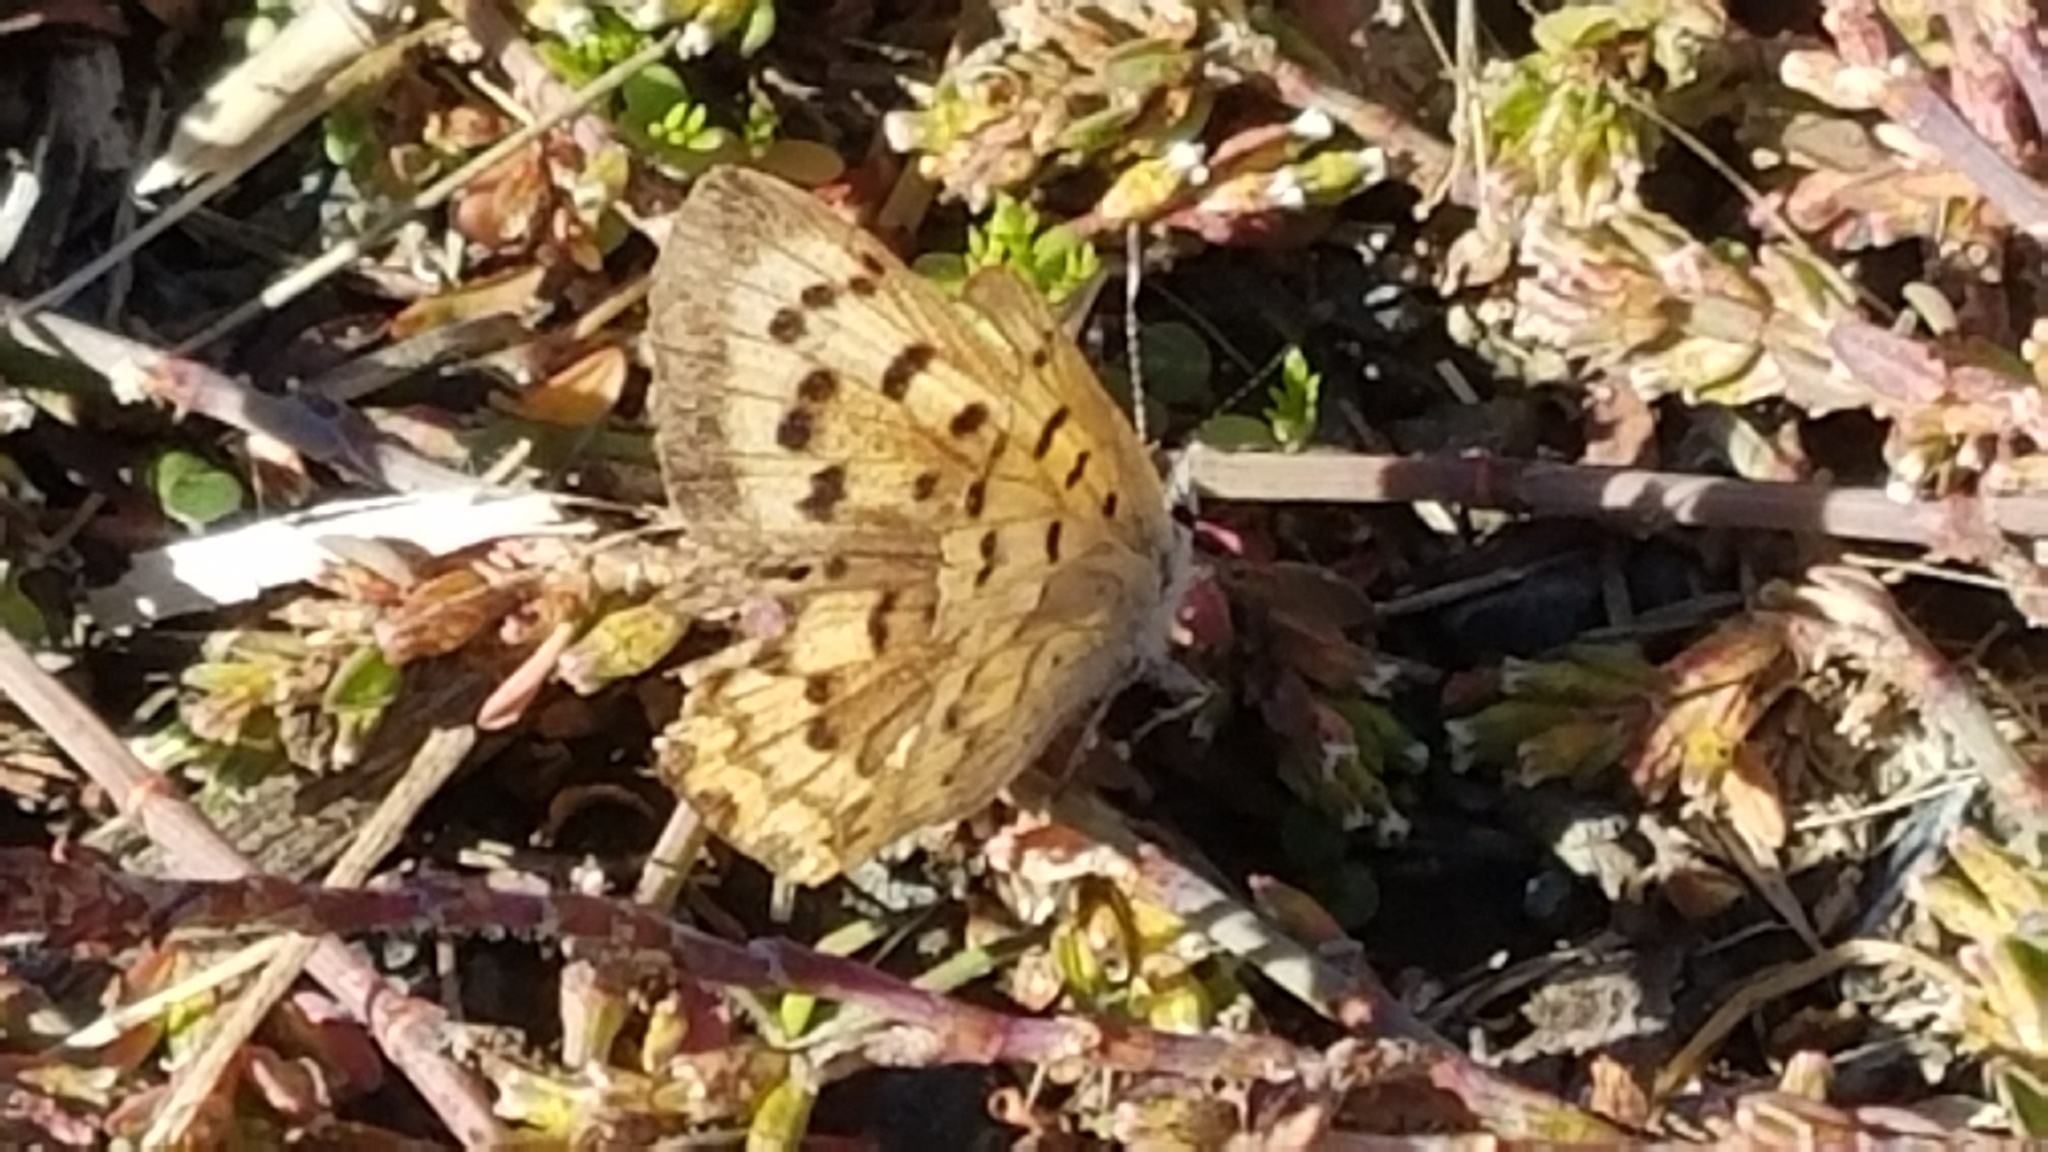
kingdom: Animalia
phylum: Arthropoda
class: Insecta
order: Lepidoptera
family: Lycaenidae
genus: Tharsalea
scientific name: Tharsalea helloides
